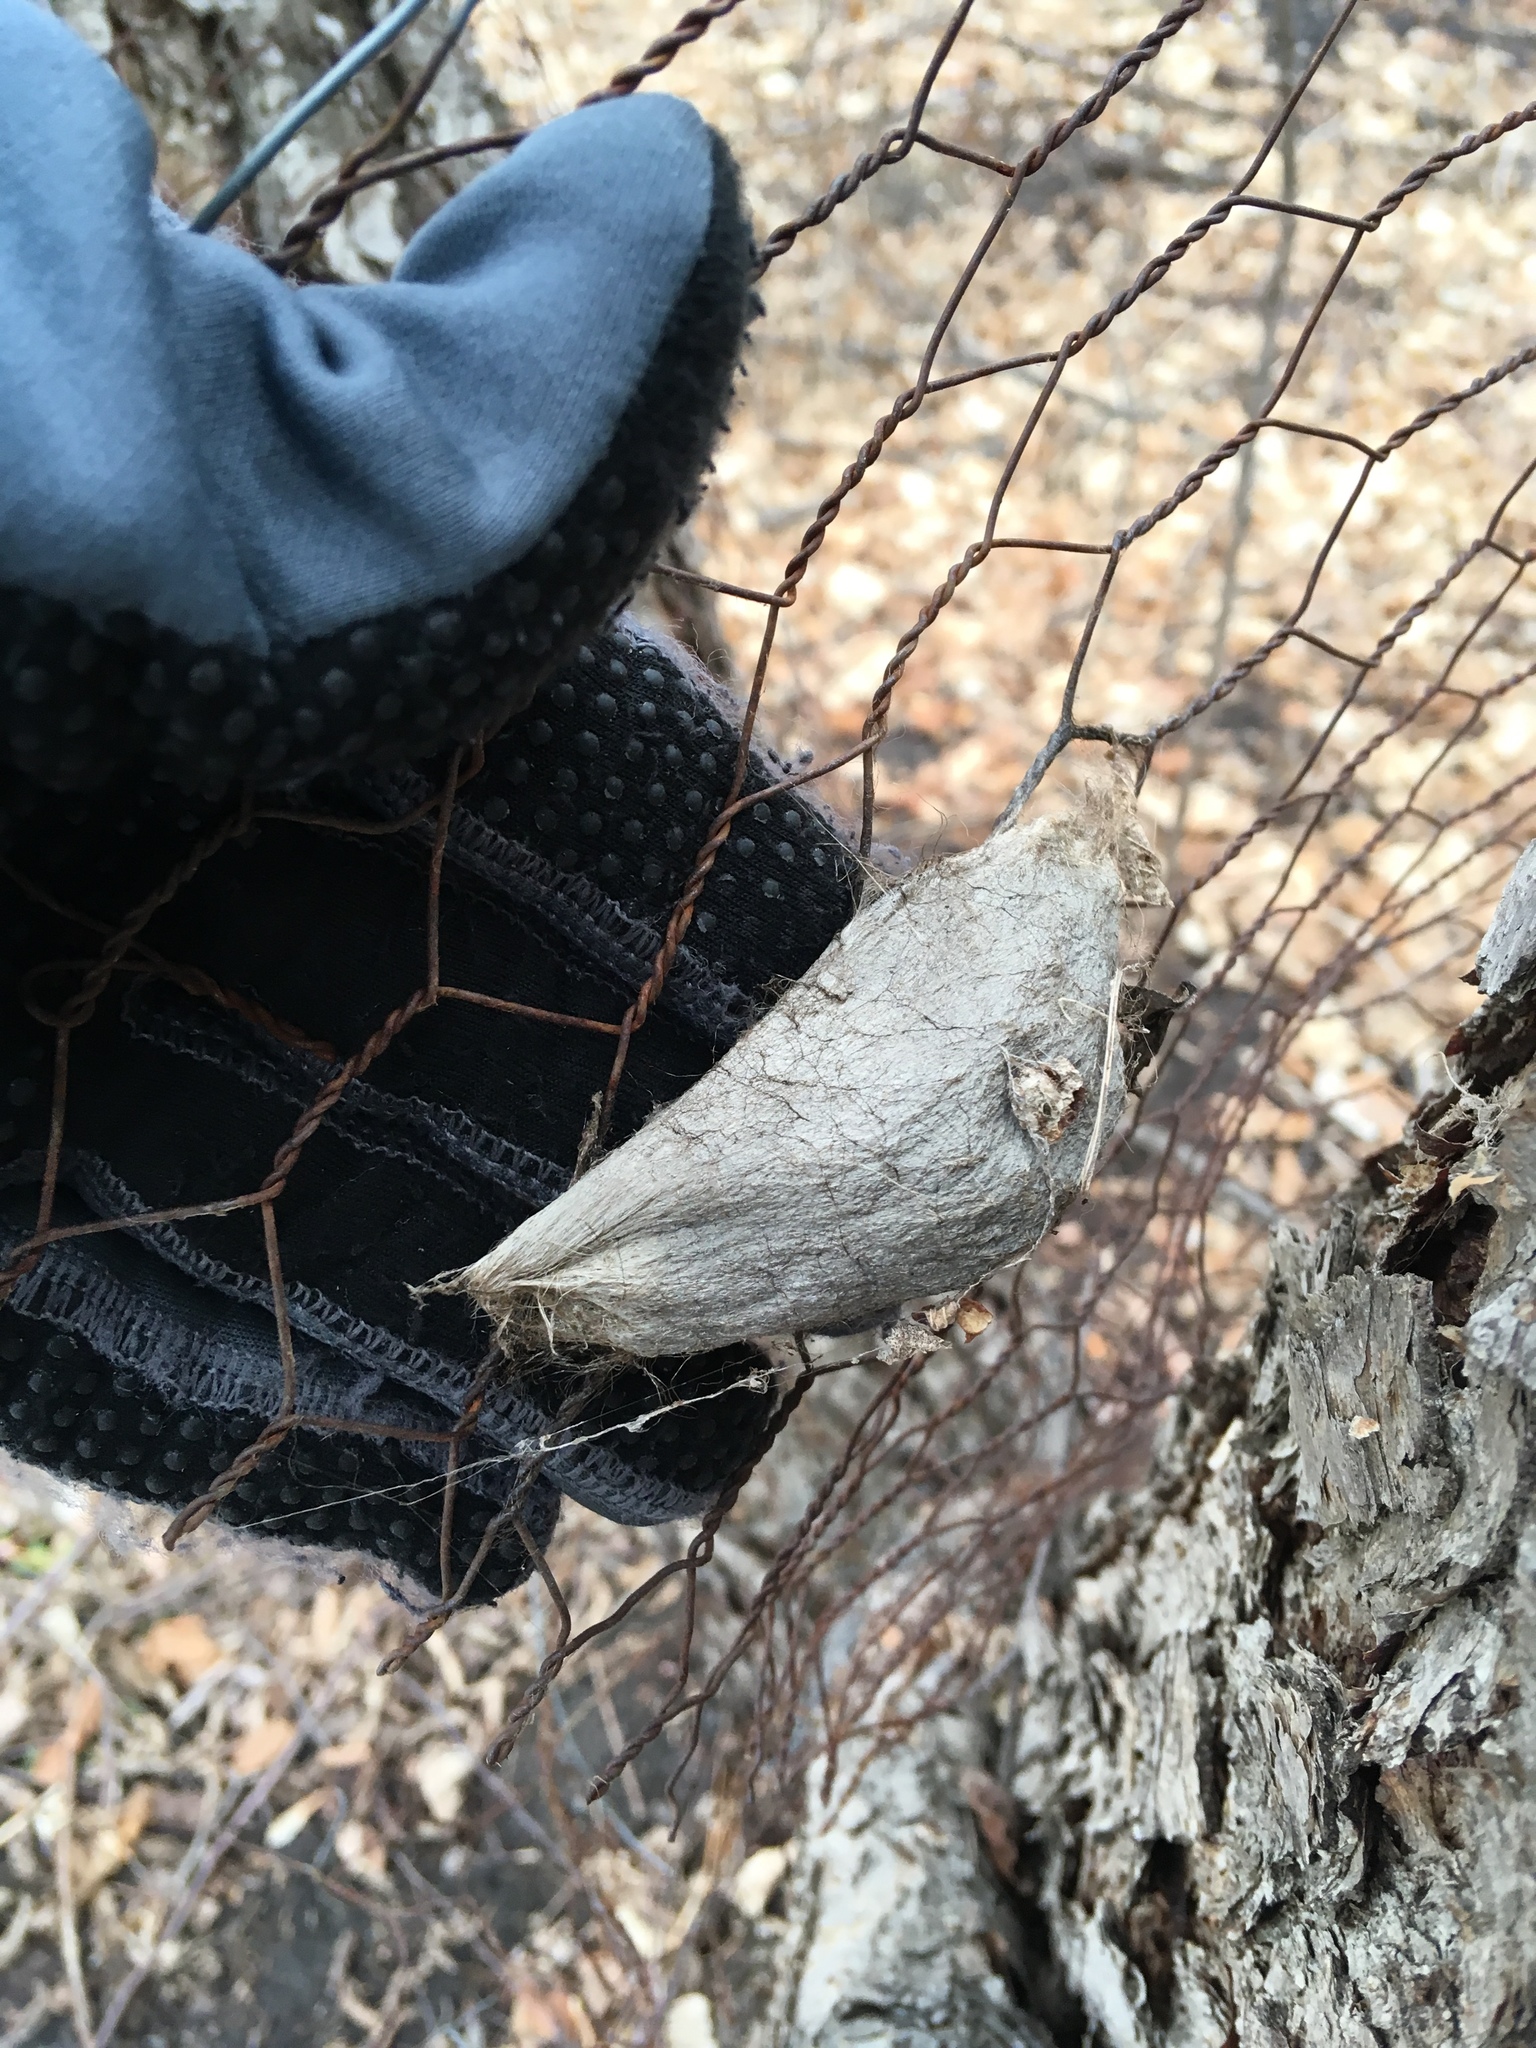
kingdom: Animalia
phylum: Arthropoda
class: Insecta
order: Lepidoptera
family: Saturniidae
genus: Hyalophora
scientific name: Hyalophora cecropia
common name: Cecropia silkmoth
